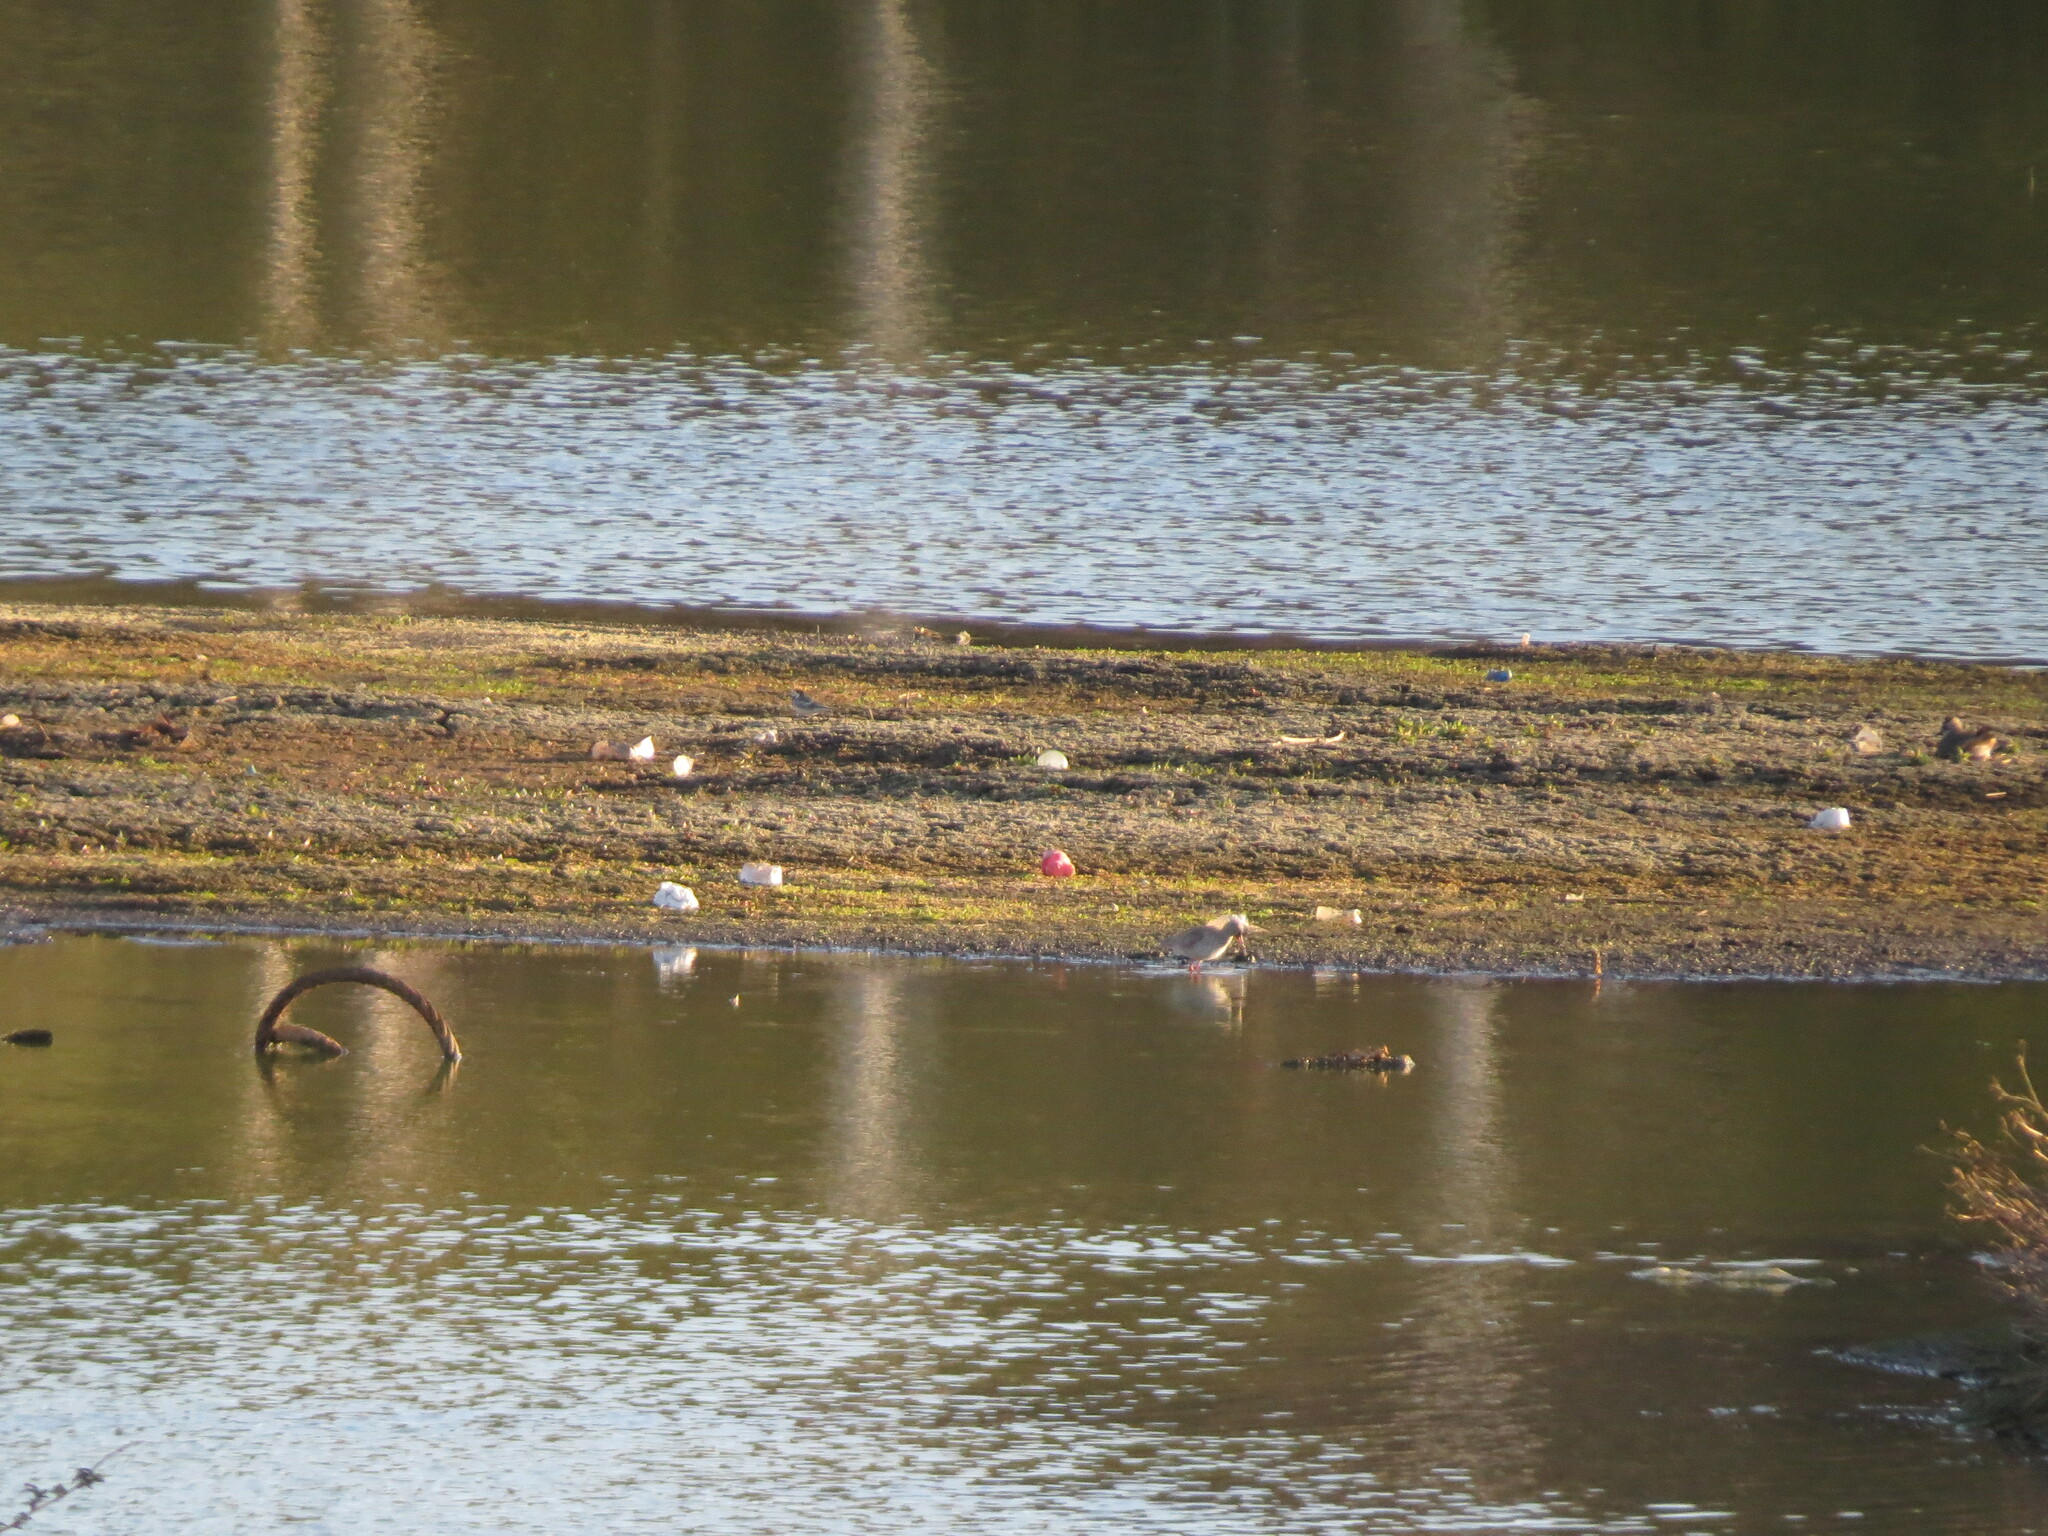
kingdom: Animalia
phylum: Chordata
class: Aves
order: Charadriiformes
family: Scolopacidae
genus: Tringa
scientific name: Tringa totanus
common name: Common redshank
